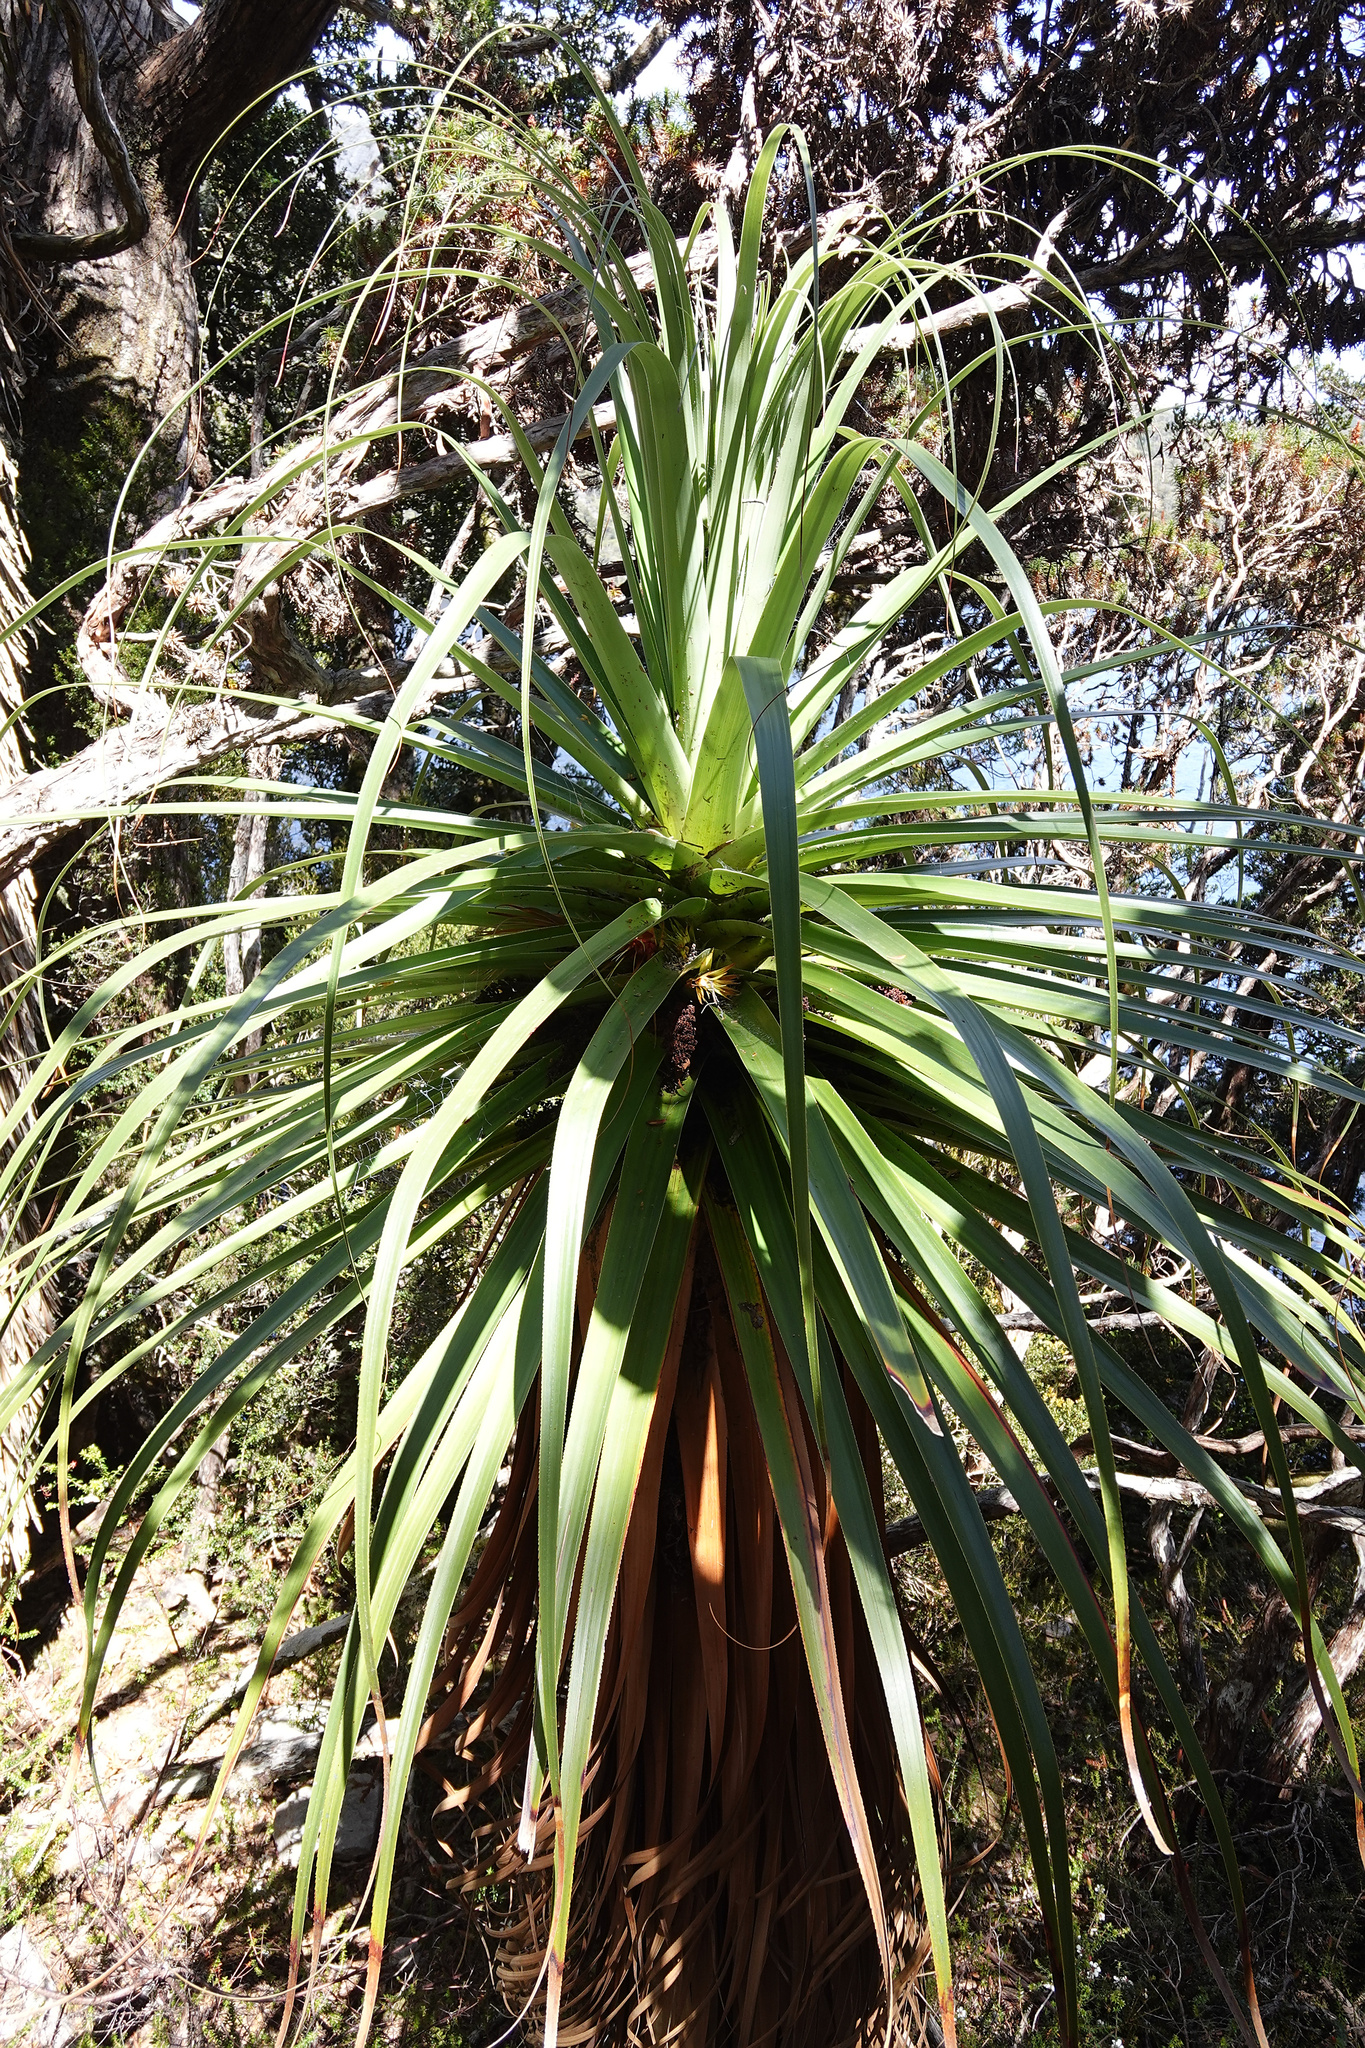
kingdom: Plantae
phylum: Tracheophyta
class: Magnoliopsida
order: Ericales
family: Ericaceae
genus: Dracophyllum
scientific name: Dracophyllum pandanifolium
